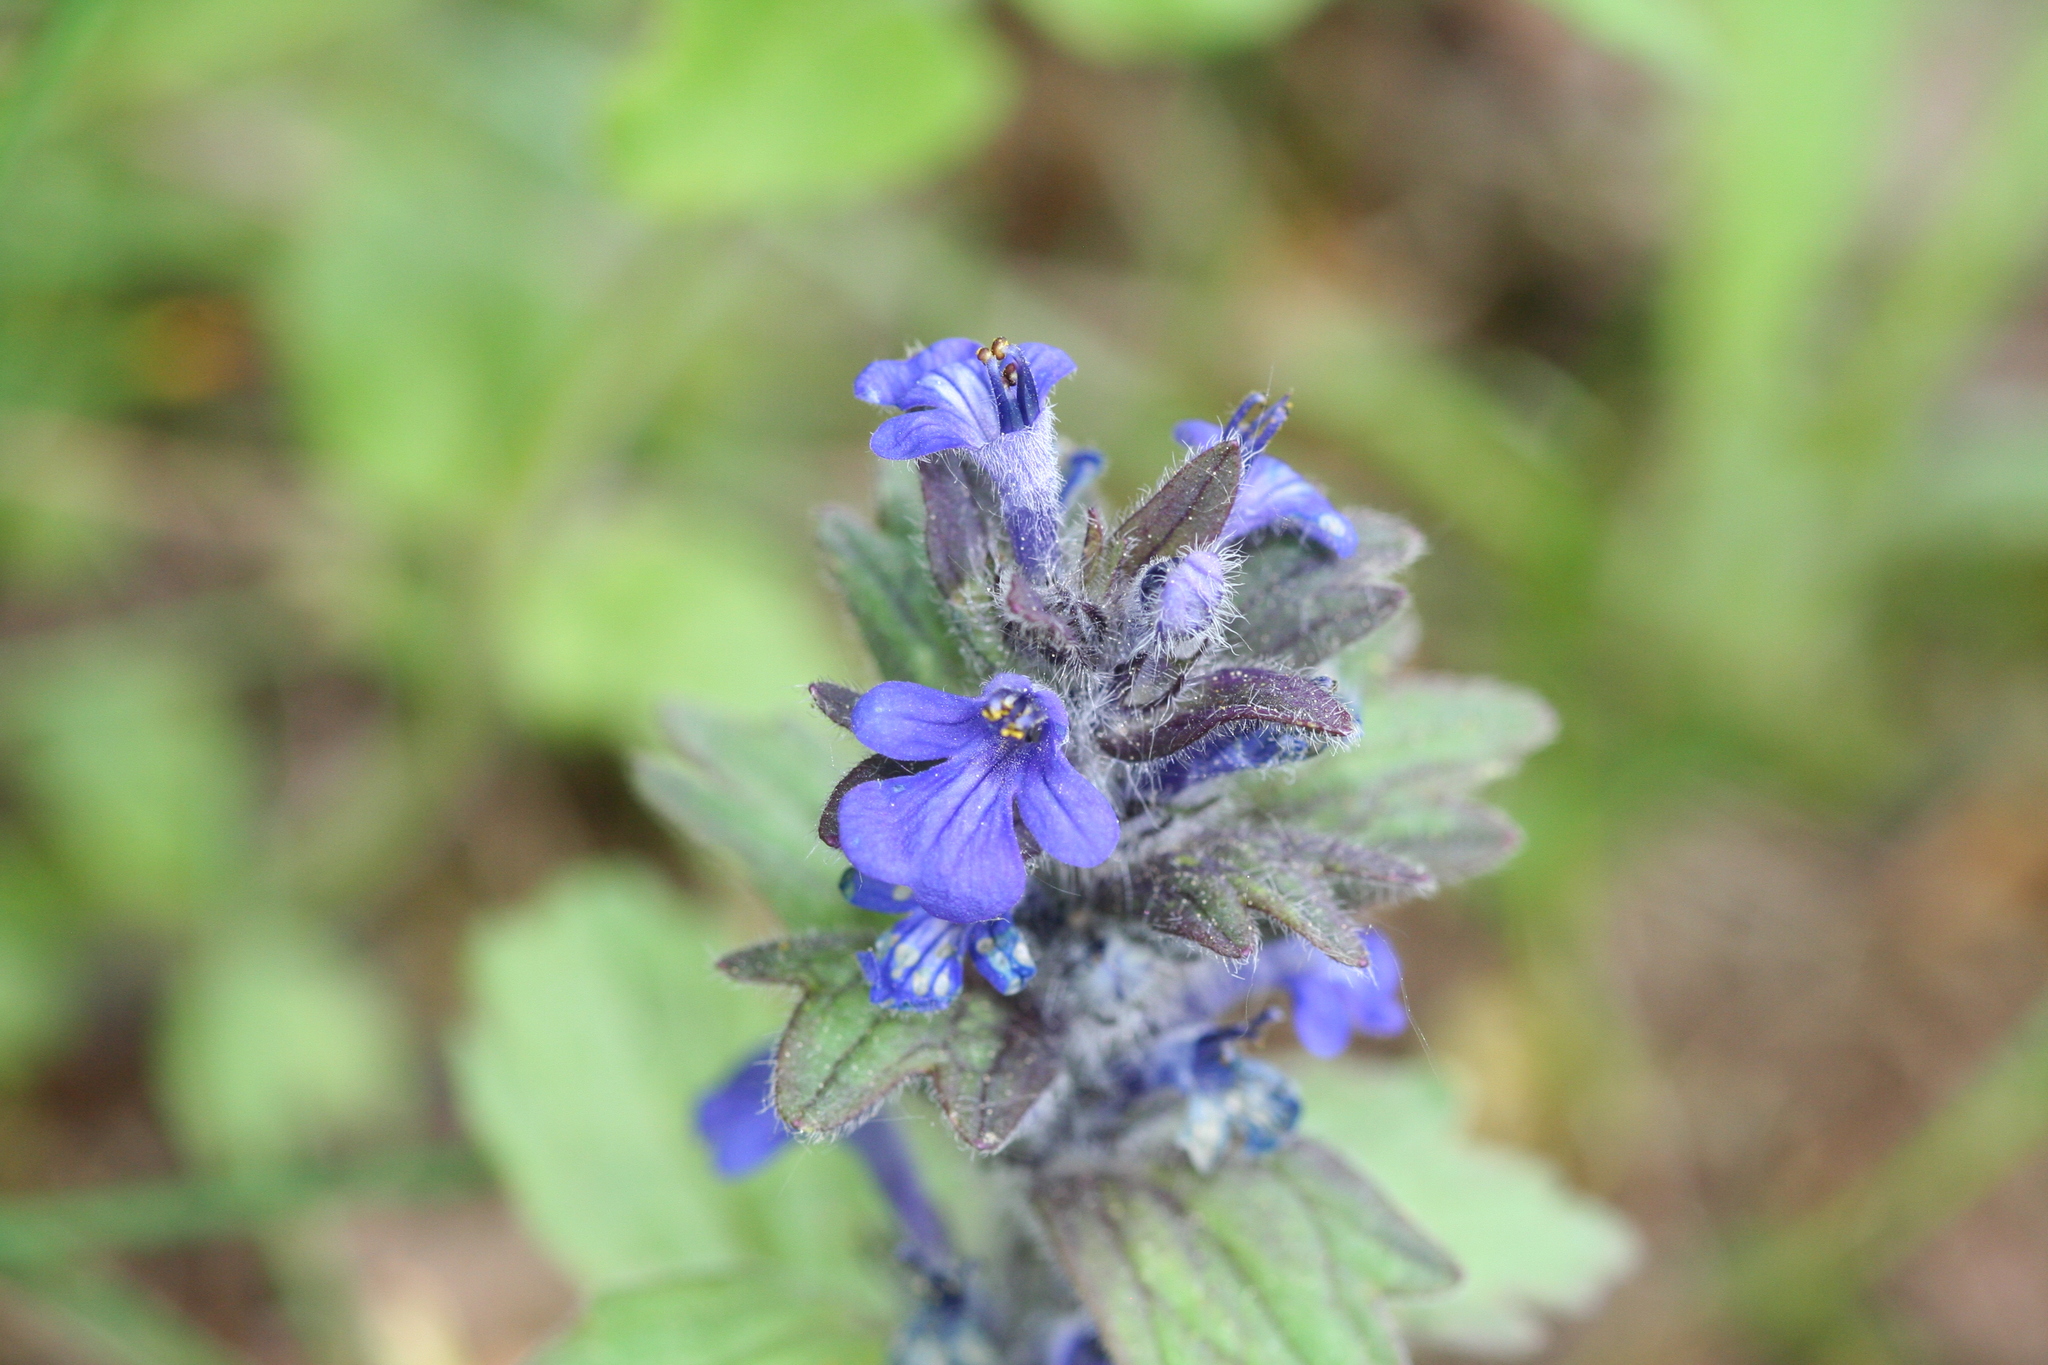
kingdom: Plantae
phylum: Tracheophyta
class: Magnoliopsida
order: Lamiales
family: Lamiaceae
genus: Ajuga
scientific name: Ajuga genevensis
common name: Blue bugle
